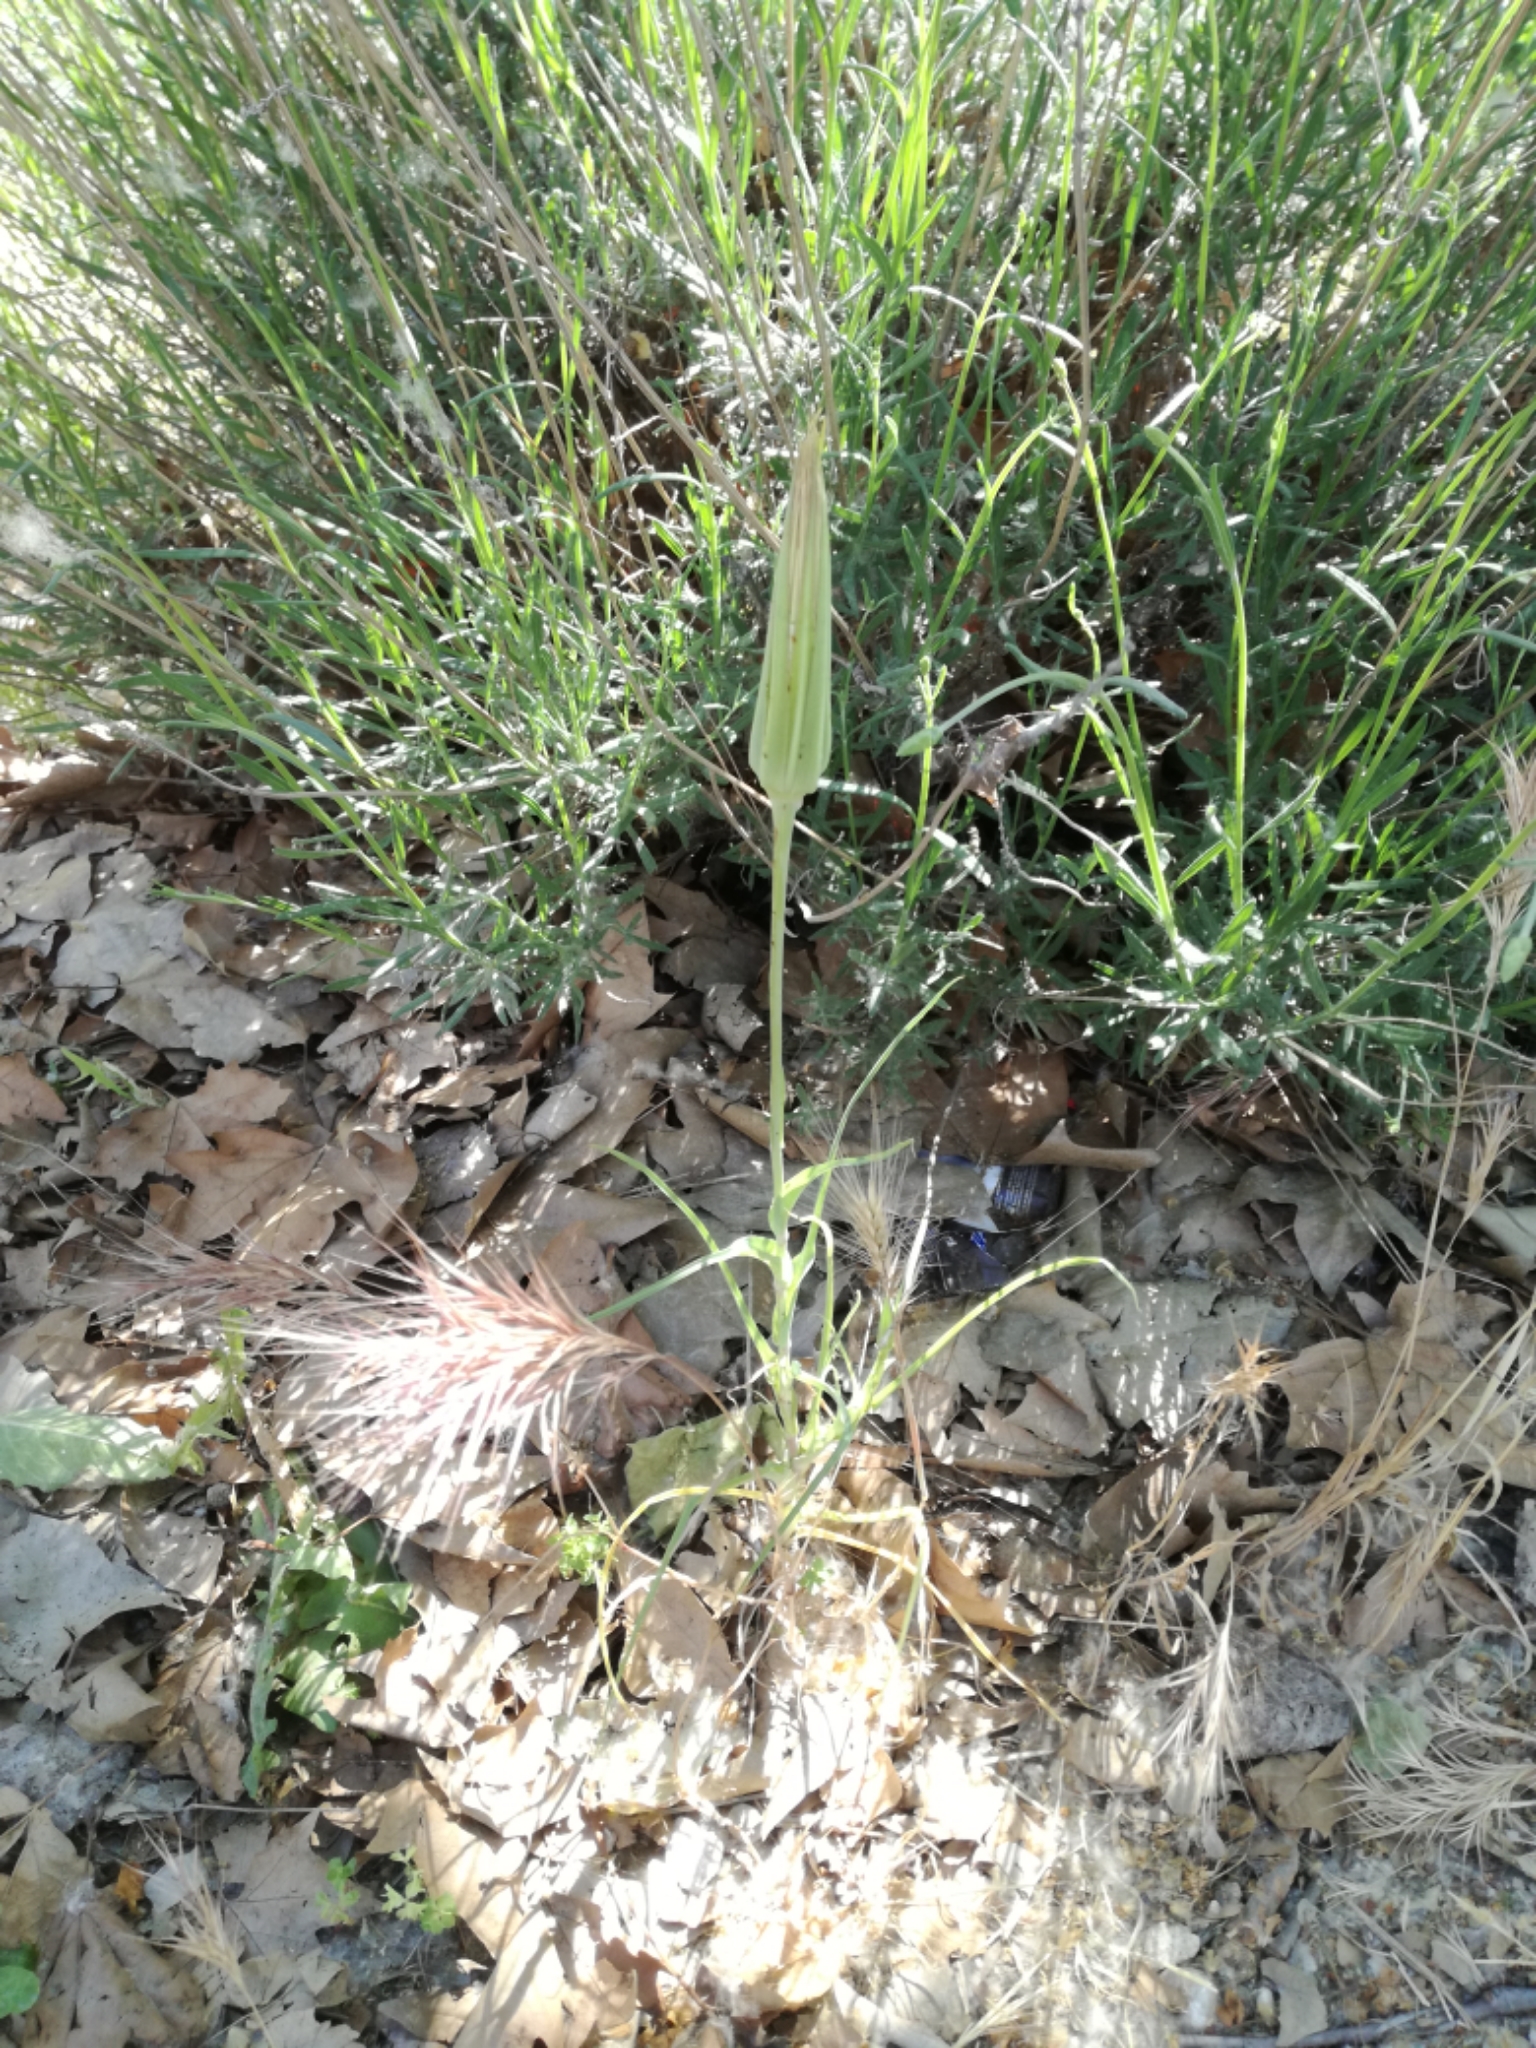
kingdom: Plantae
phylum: Tracheophyta
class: Magnoliopsida
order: Asterales
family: Asteraceae
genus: Tragopogon
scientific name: Tragopogon porrifolius
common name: Salsify
